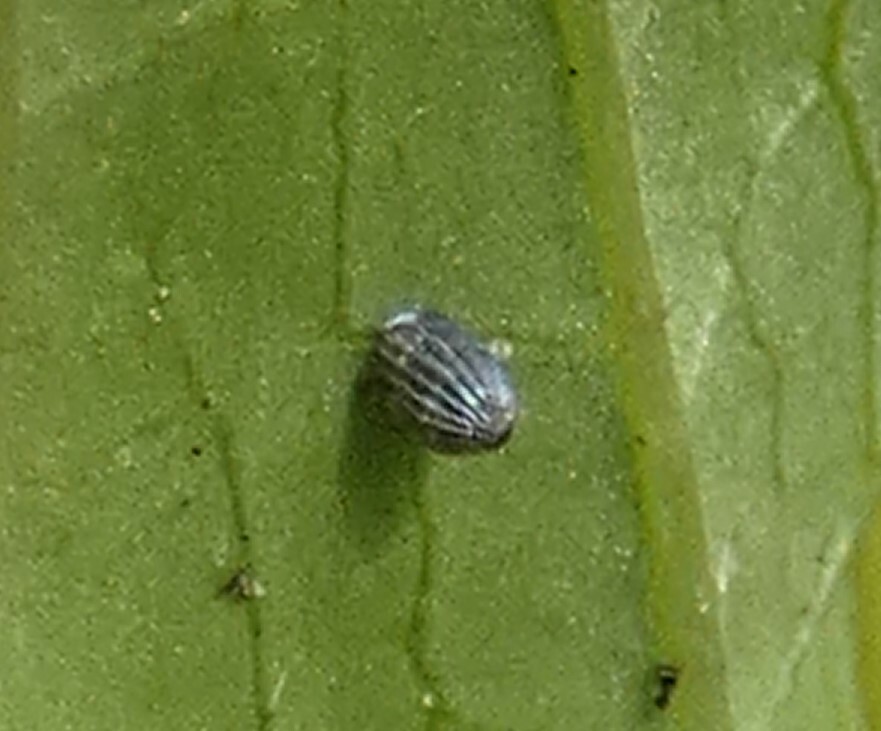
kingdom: Animalia
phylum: Arthropoda
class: Insecta
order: Lepidoptera
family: Nymphalidae
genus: Danaus
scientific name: Danaus plexippus
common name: Monarch
